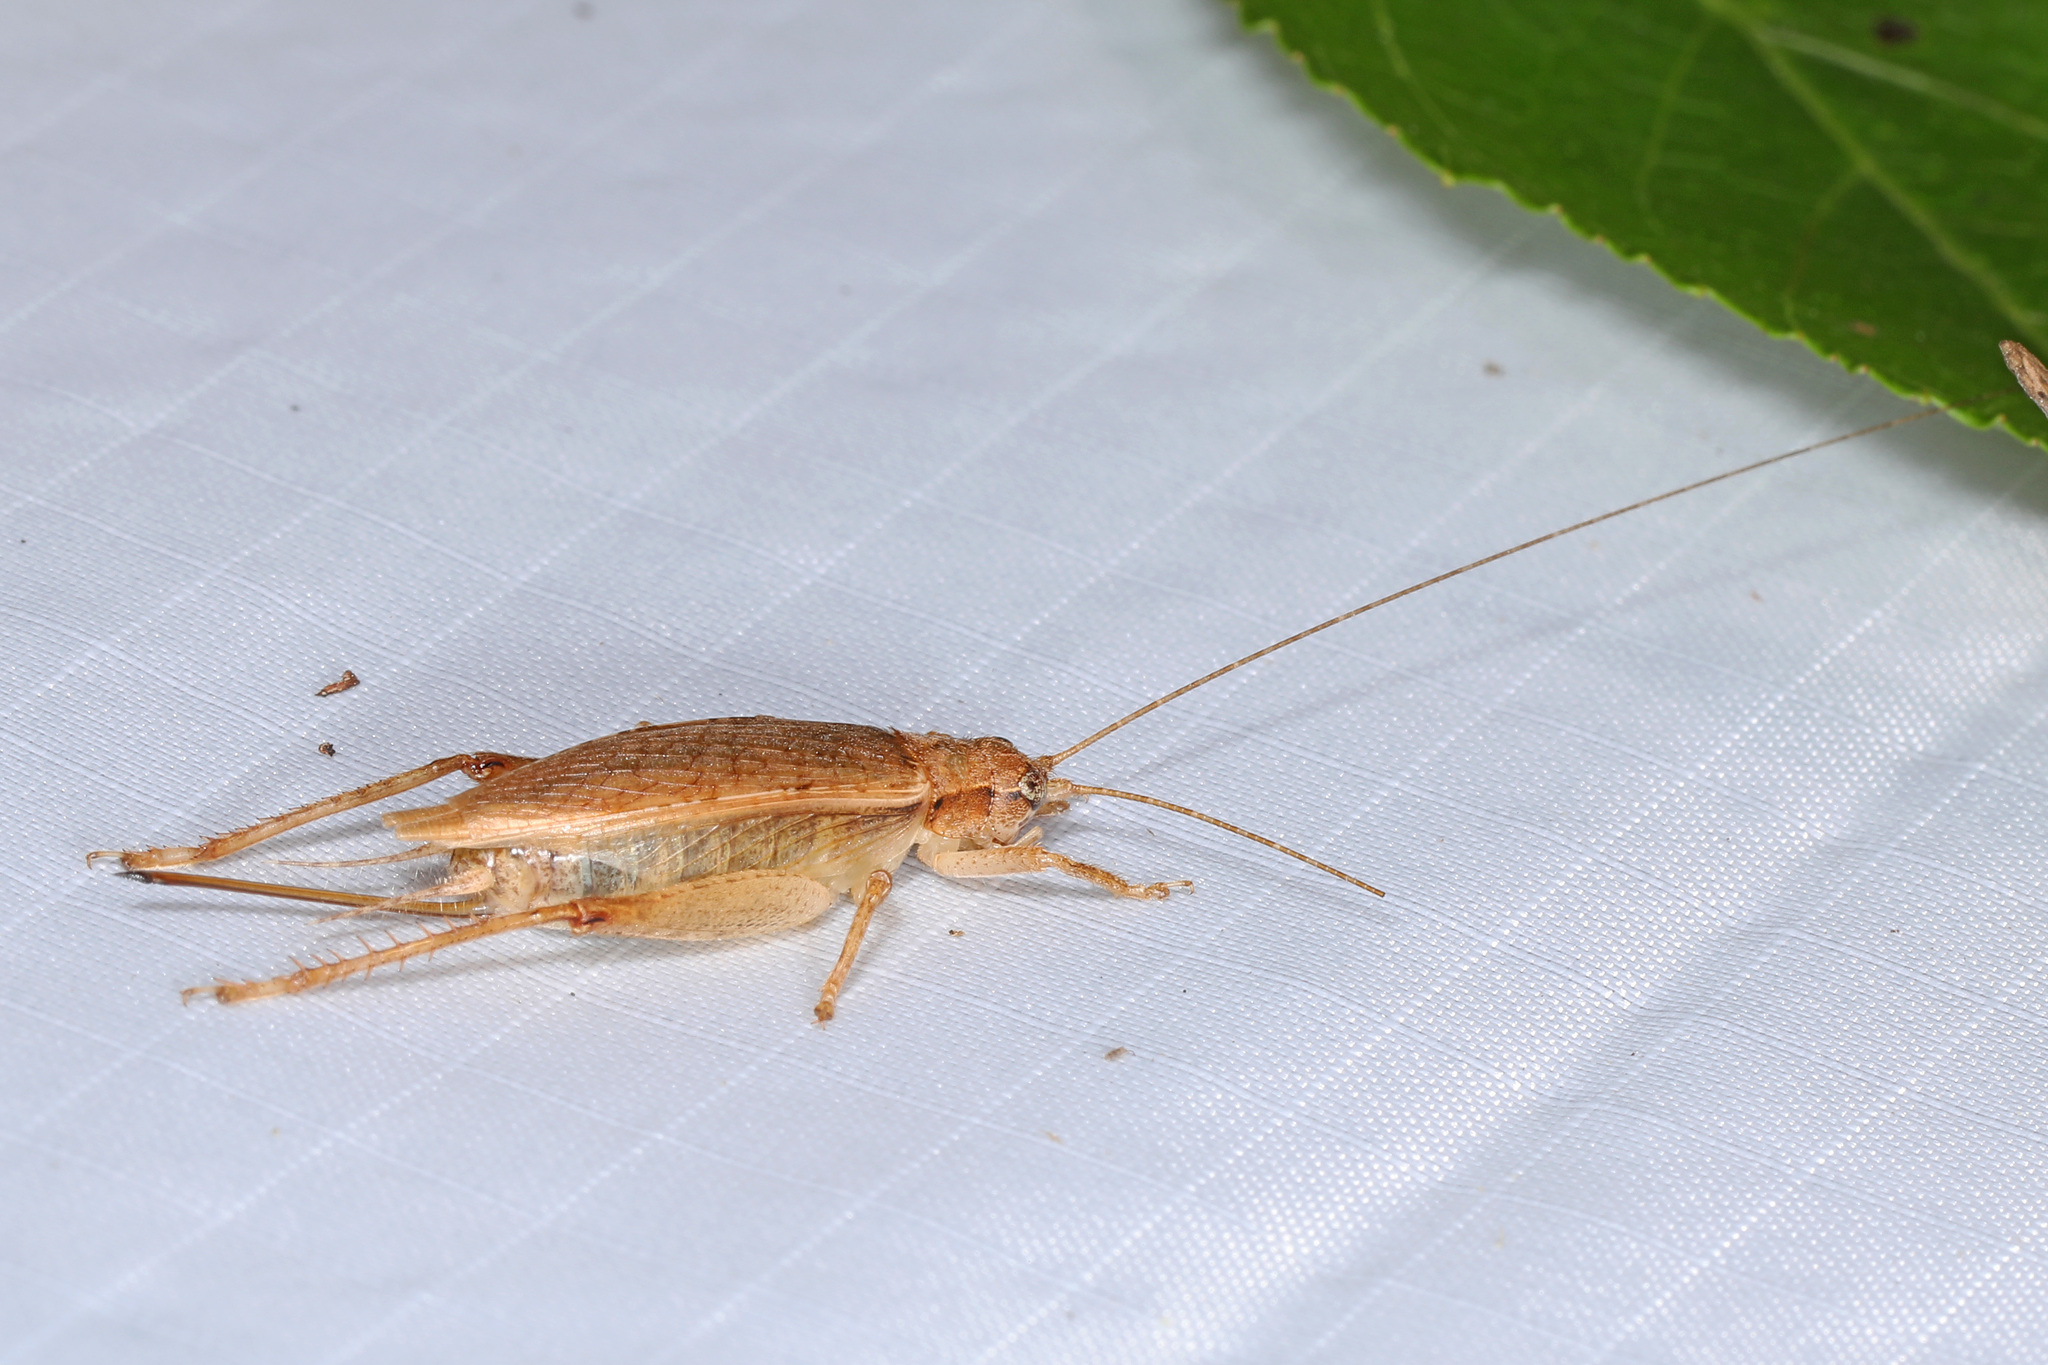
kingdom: Animalia
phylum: Arthropoda
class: Insecta
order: Orthoptera
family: Gryllidae
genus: Hapithus
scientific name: Hapithus saltator
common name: Jumping bush cricket
